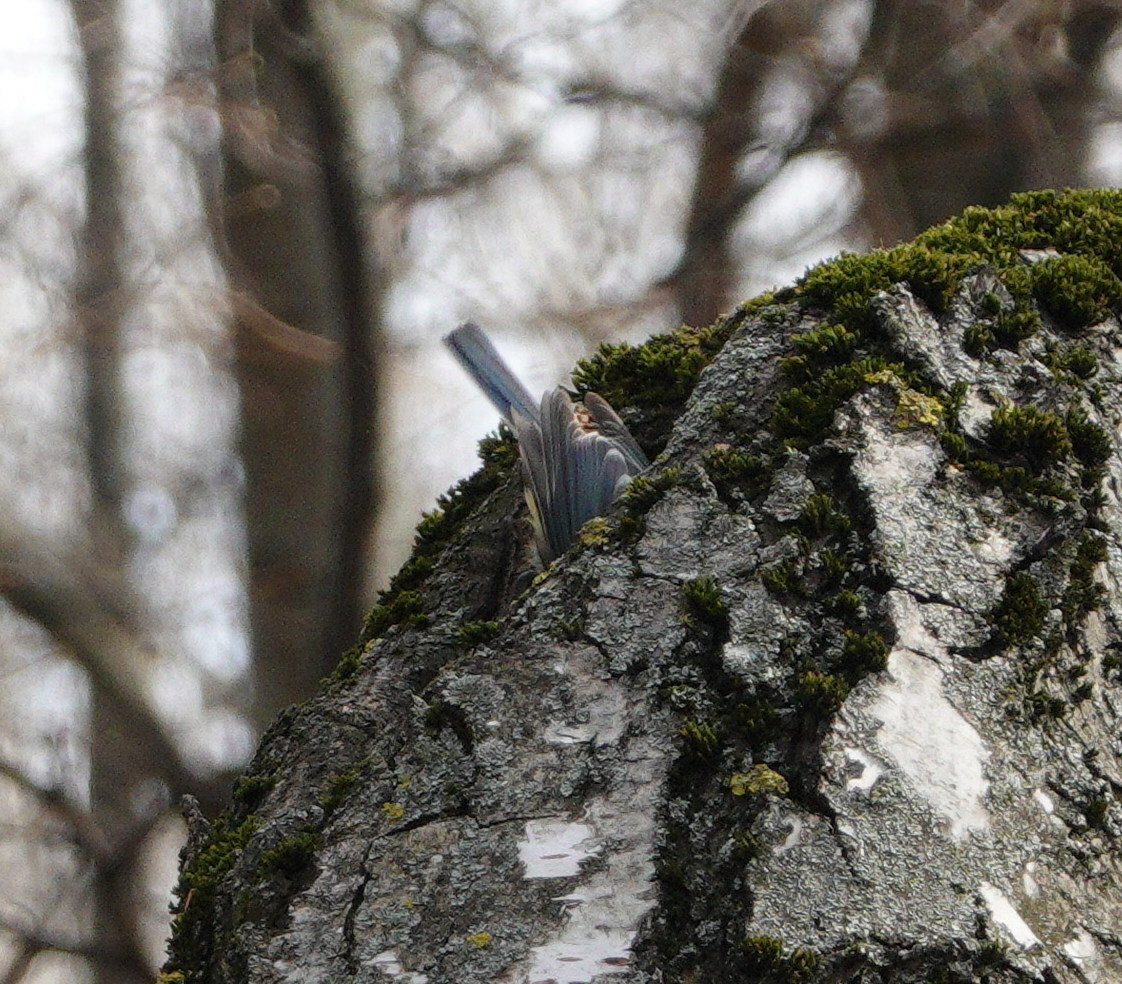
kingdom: Animalia
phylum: Chordata
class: Aves
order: Passeriformes
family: Paridae
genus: Cyanistes
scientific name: Cyanistes caeruleus
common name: Eurasian blue tit
